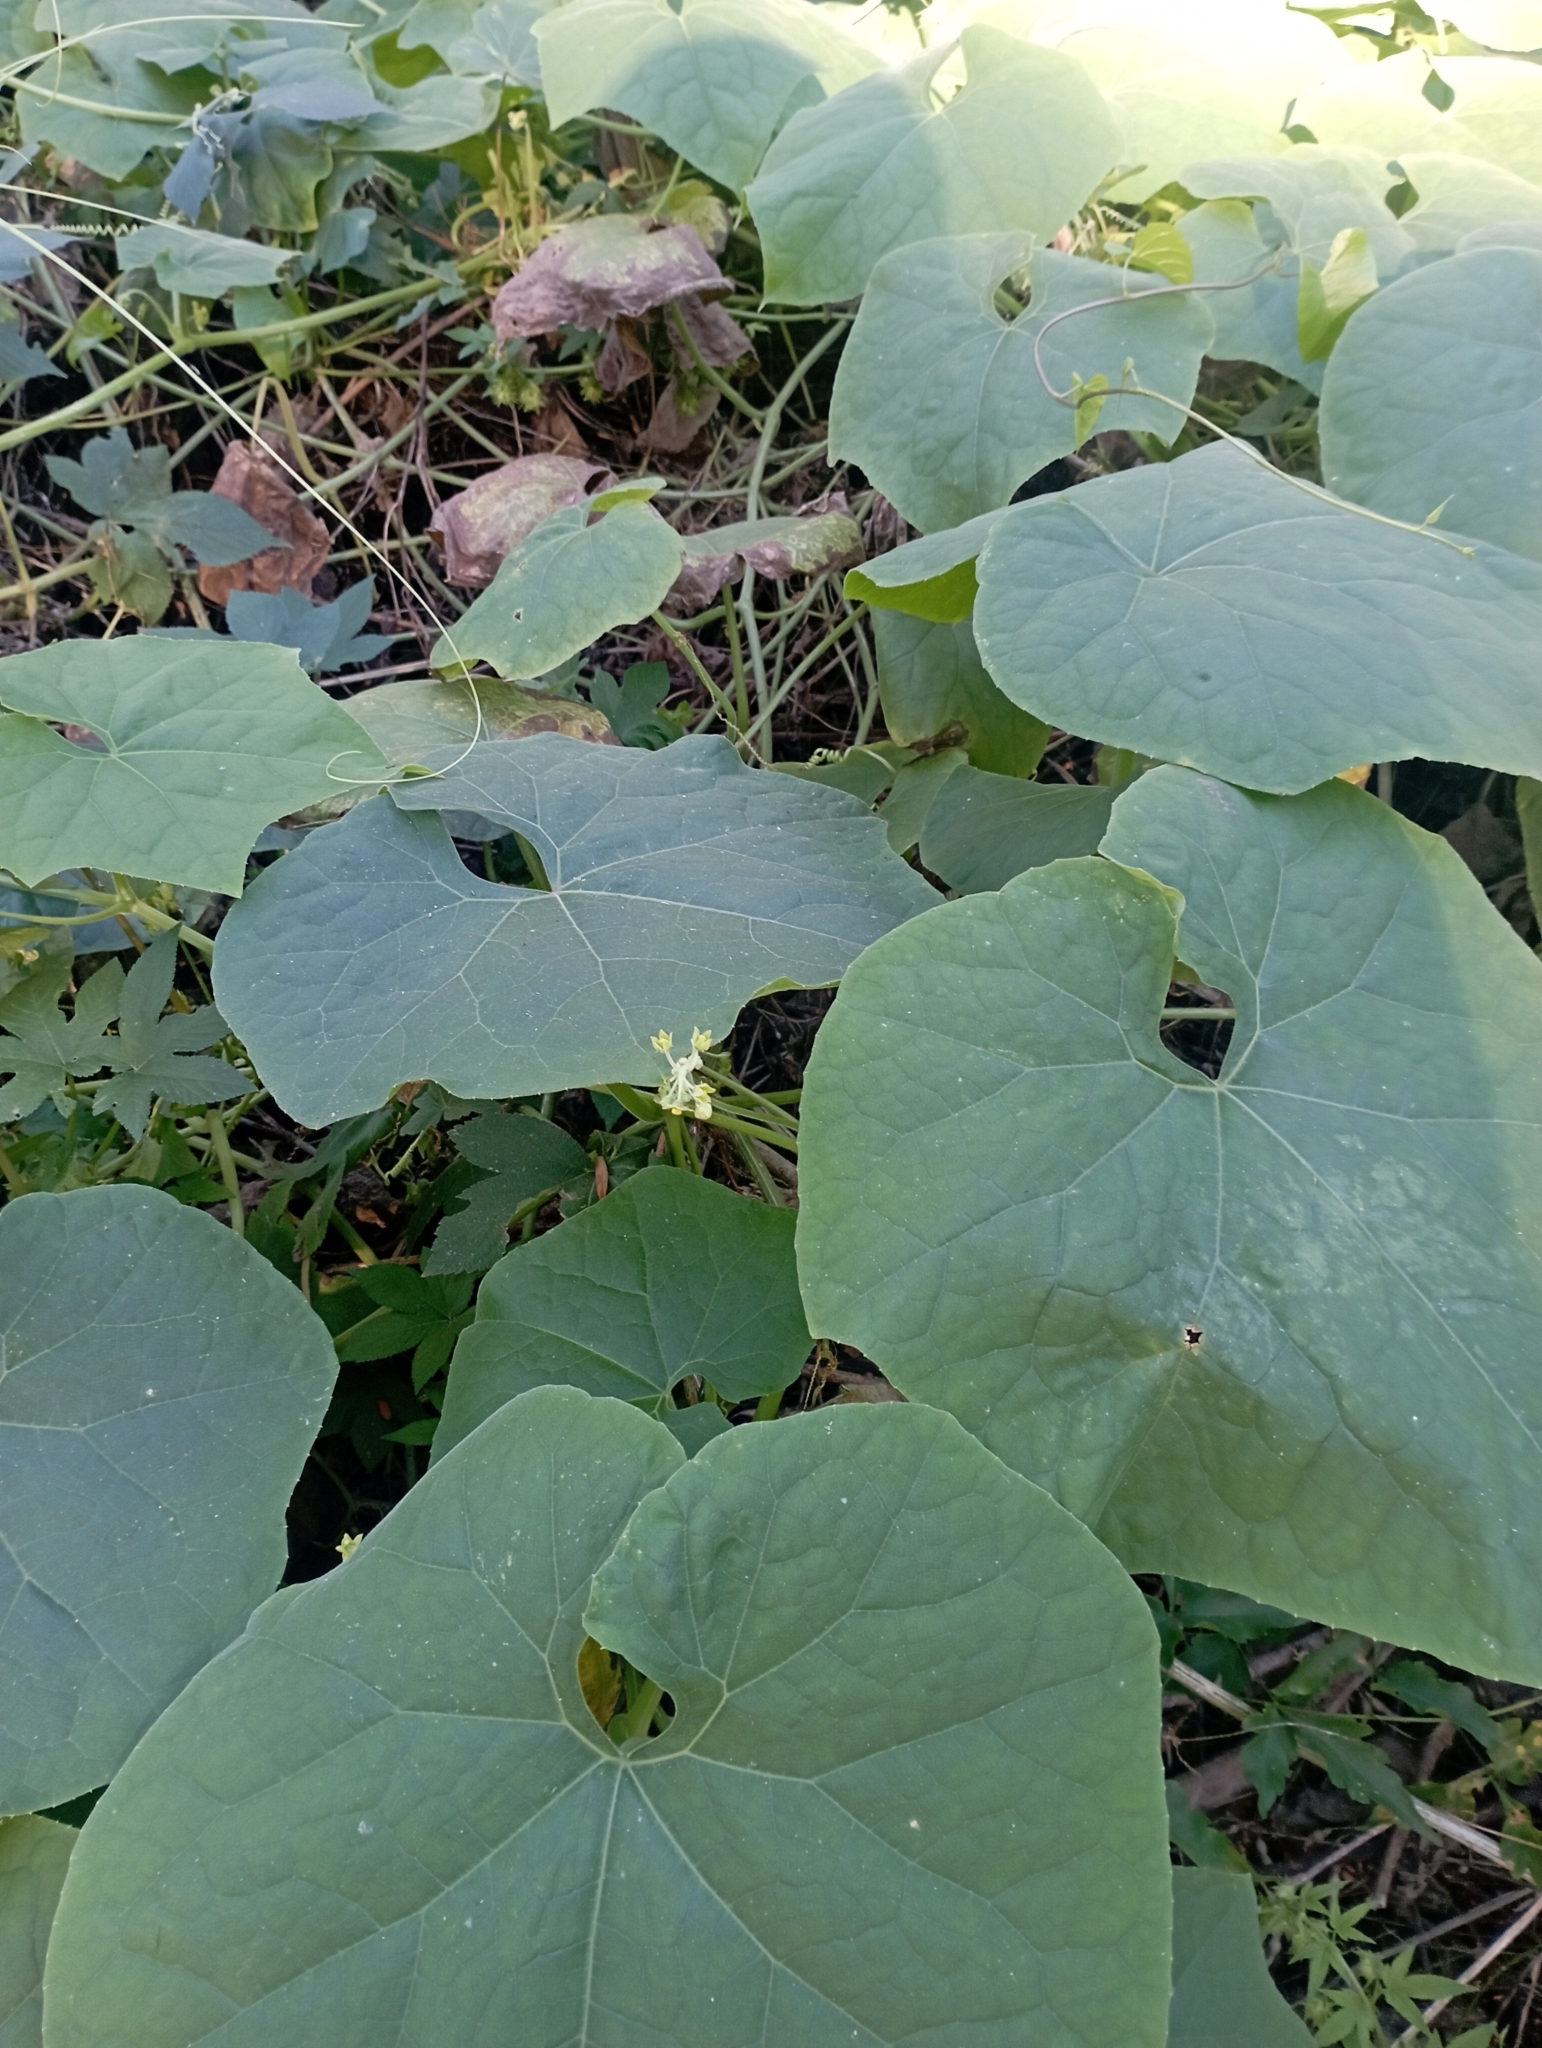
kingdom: Plantae
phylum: Tracheophyta
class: Magnoliopsida
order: Cucurbitales
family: Cucurbitaceae
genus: Sicyos
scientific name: Sicyos polyacanthos
